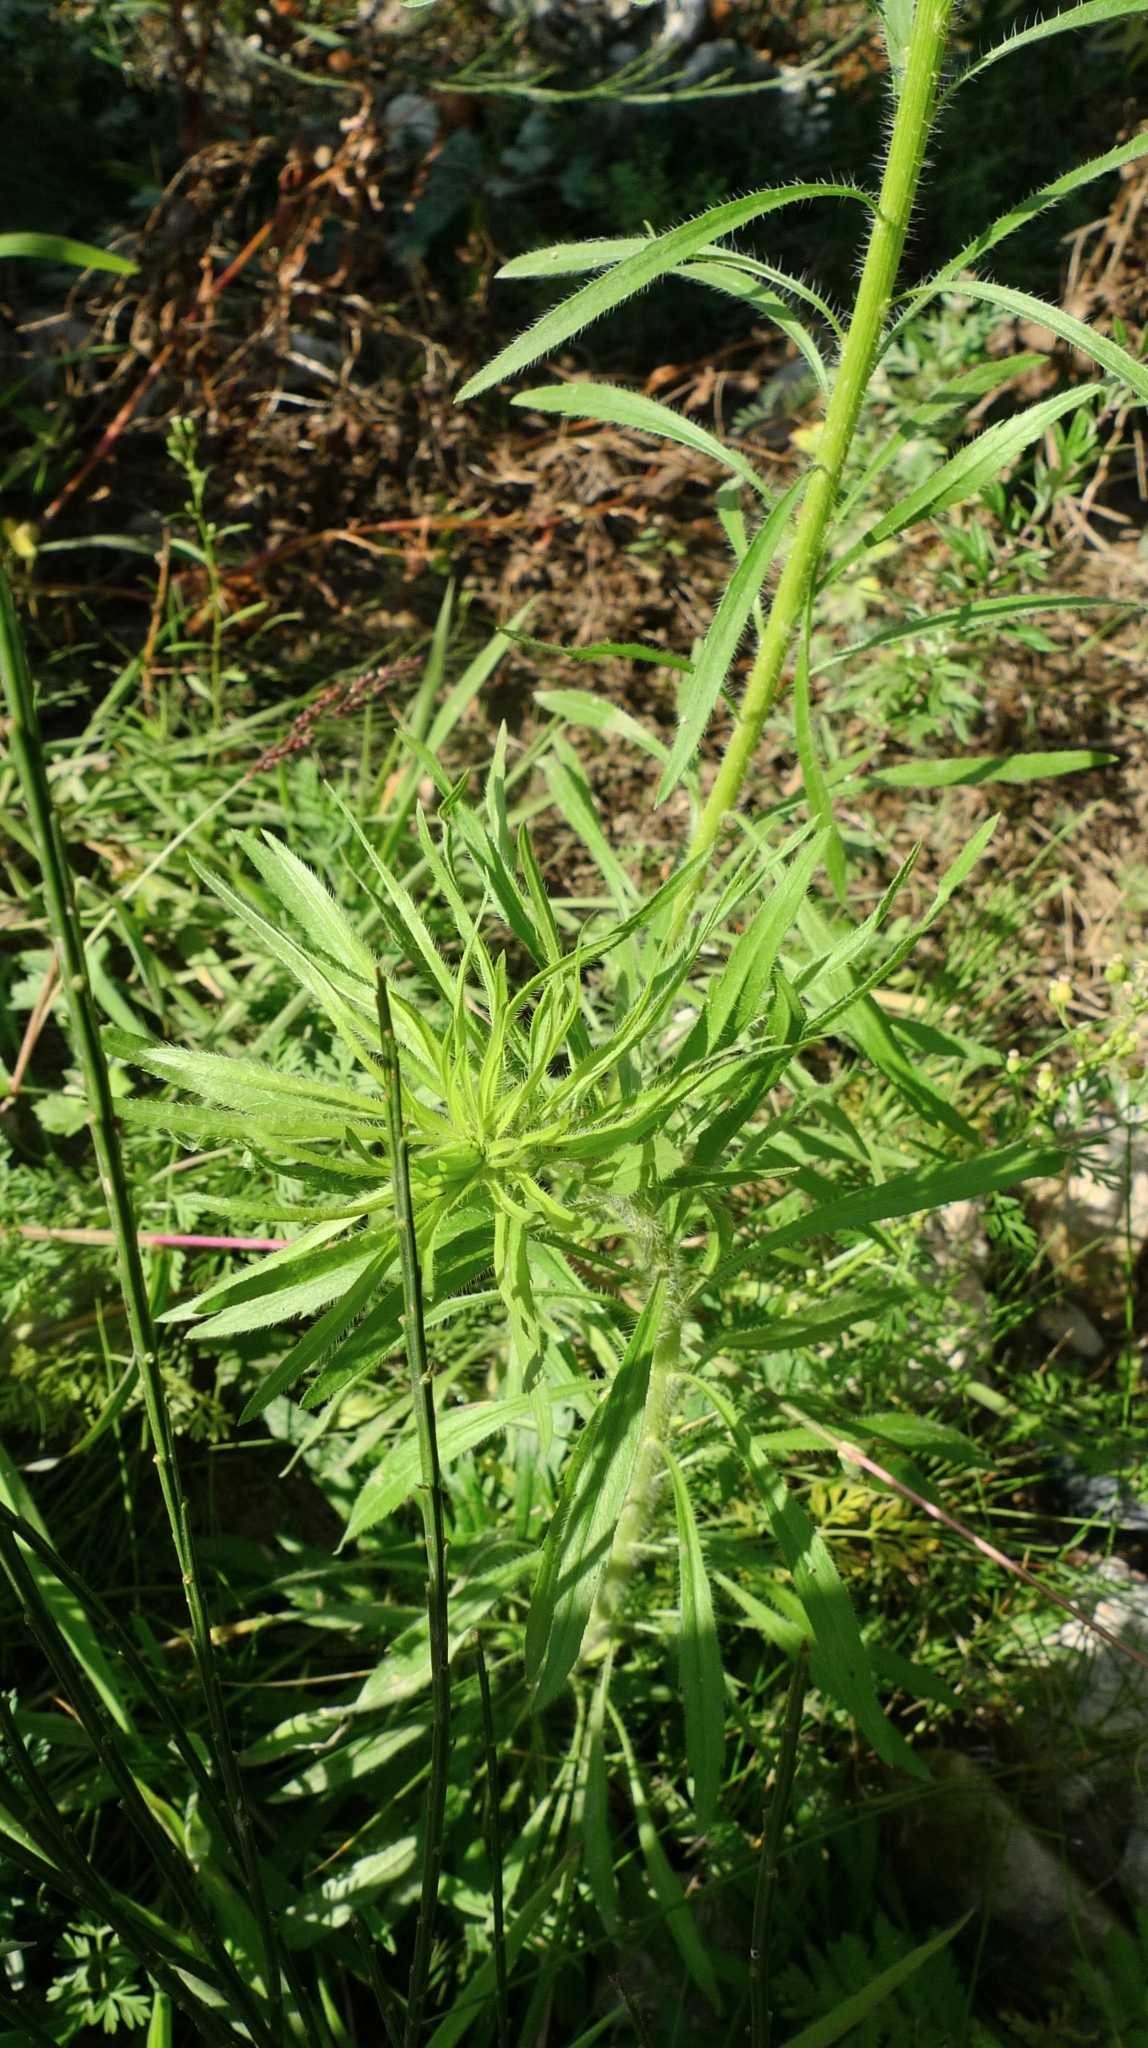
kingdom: Plantae
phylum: Tracheophyta
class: Magnoliopsida
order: Asterales
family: Asteraceae
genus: Erigeron
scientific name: Erigeron canadensis
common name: Canadian fleabane
